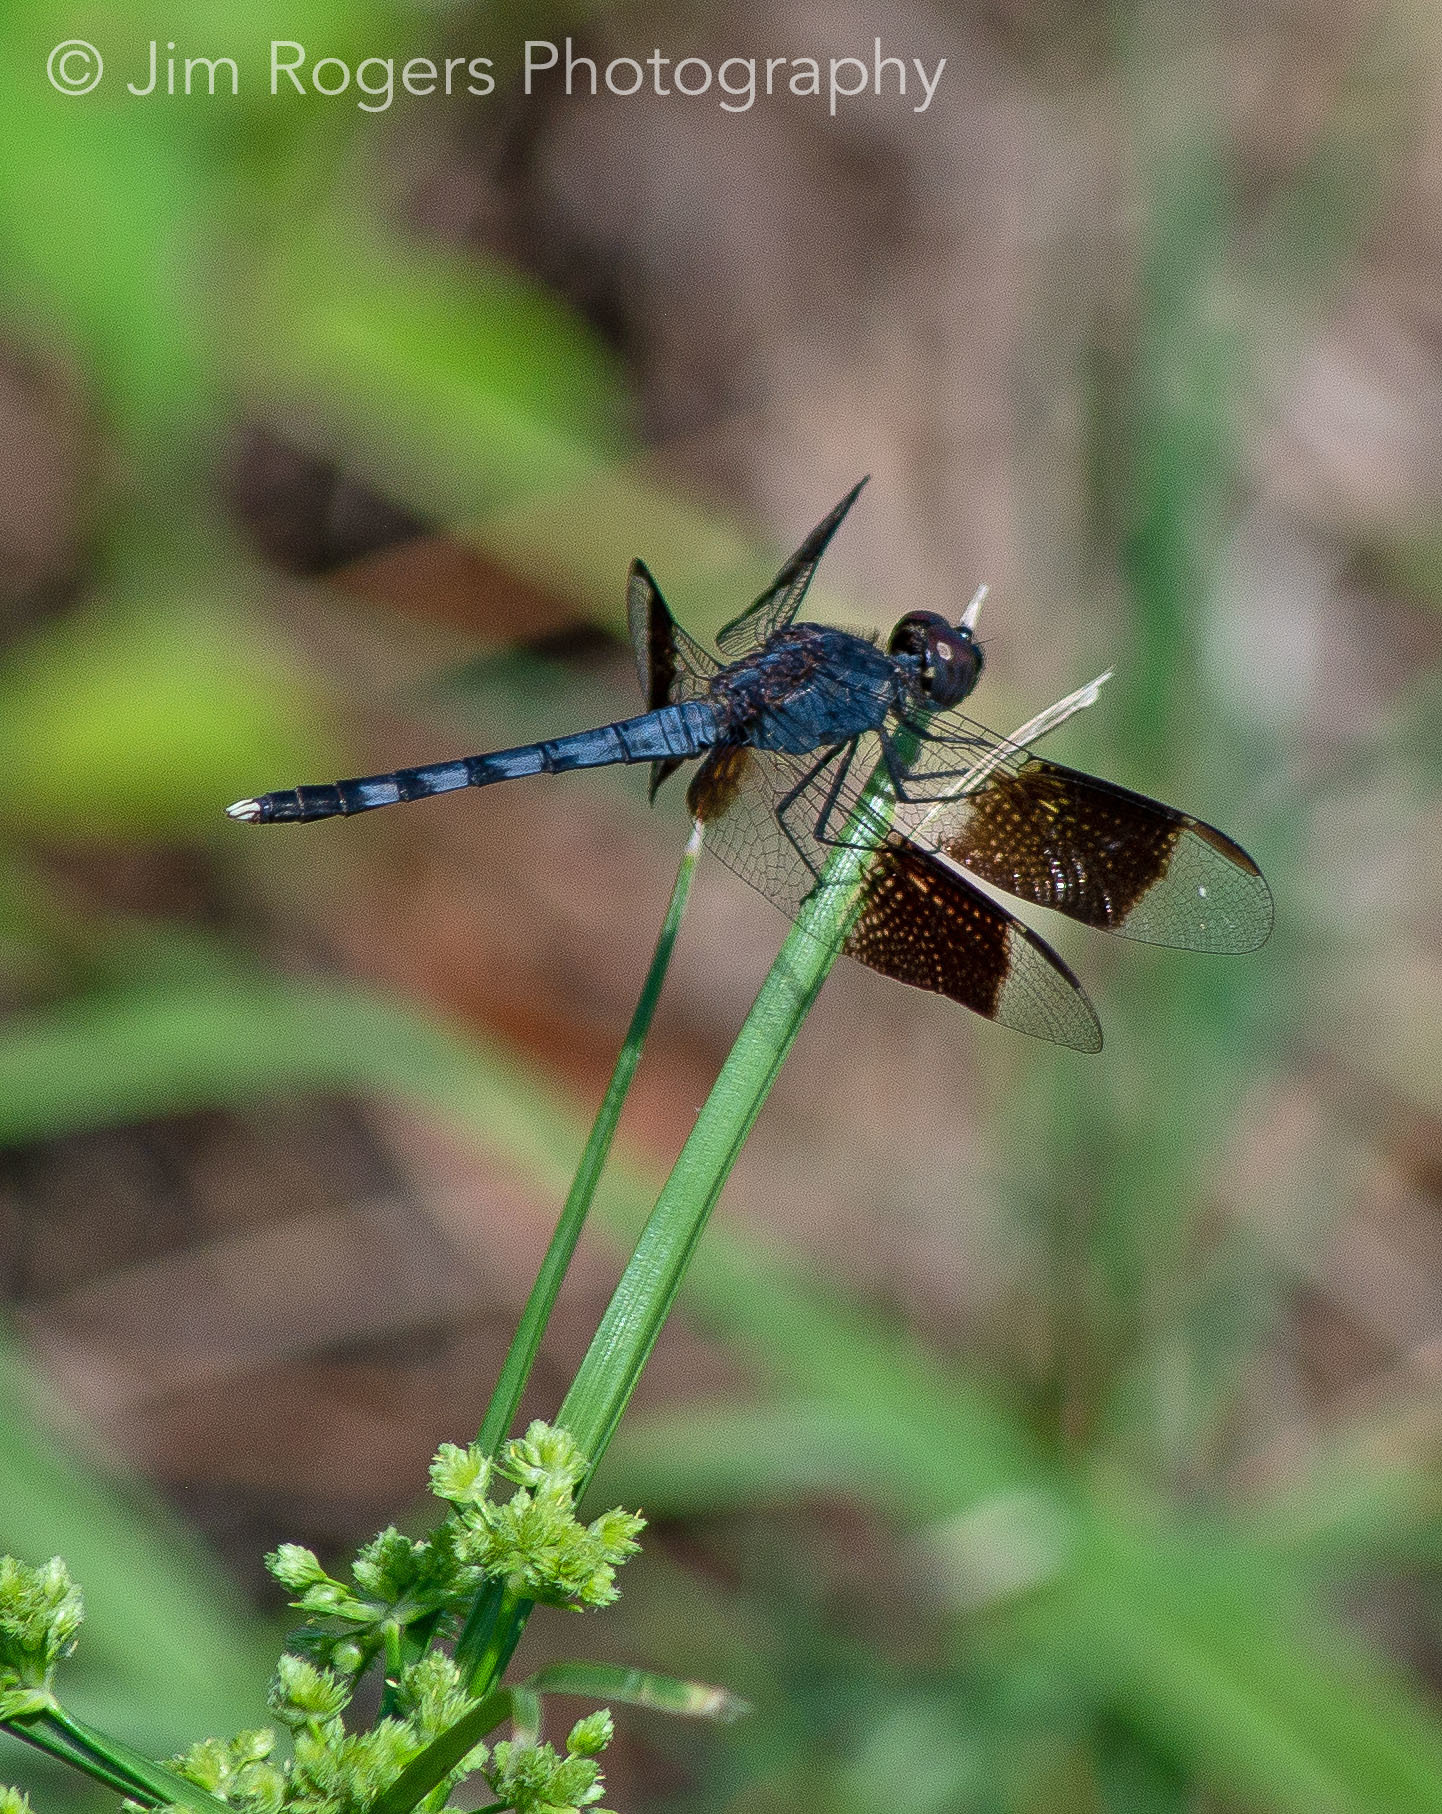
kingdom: Animalia
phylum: Arthropoda
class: Insecta
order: Odonata
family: Libellulidae
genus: Erythrodiplax
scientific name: Erythrodiplax umbrata
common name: Band-winged dragonlet
